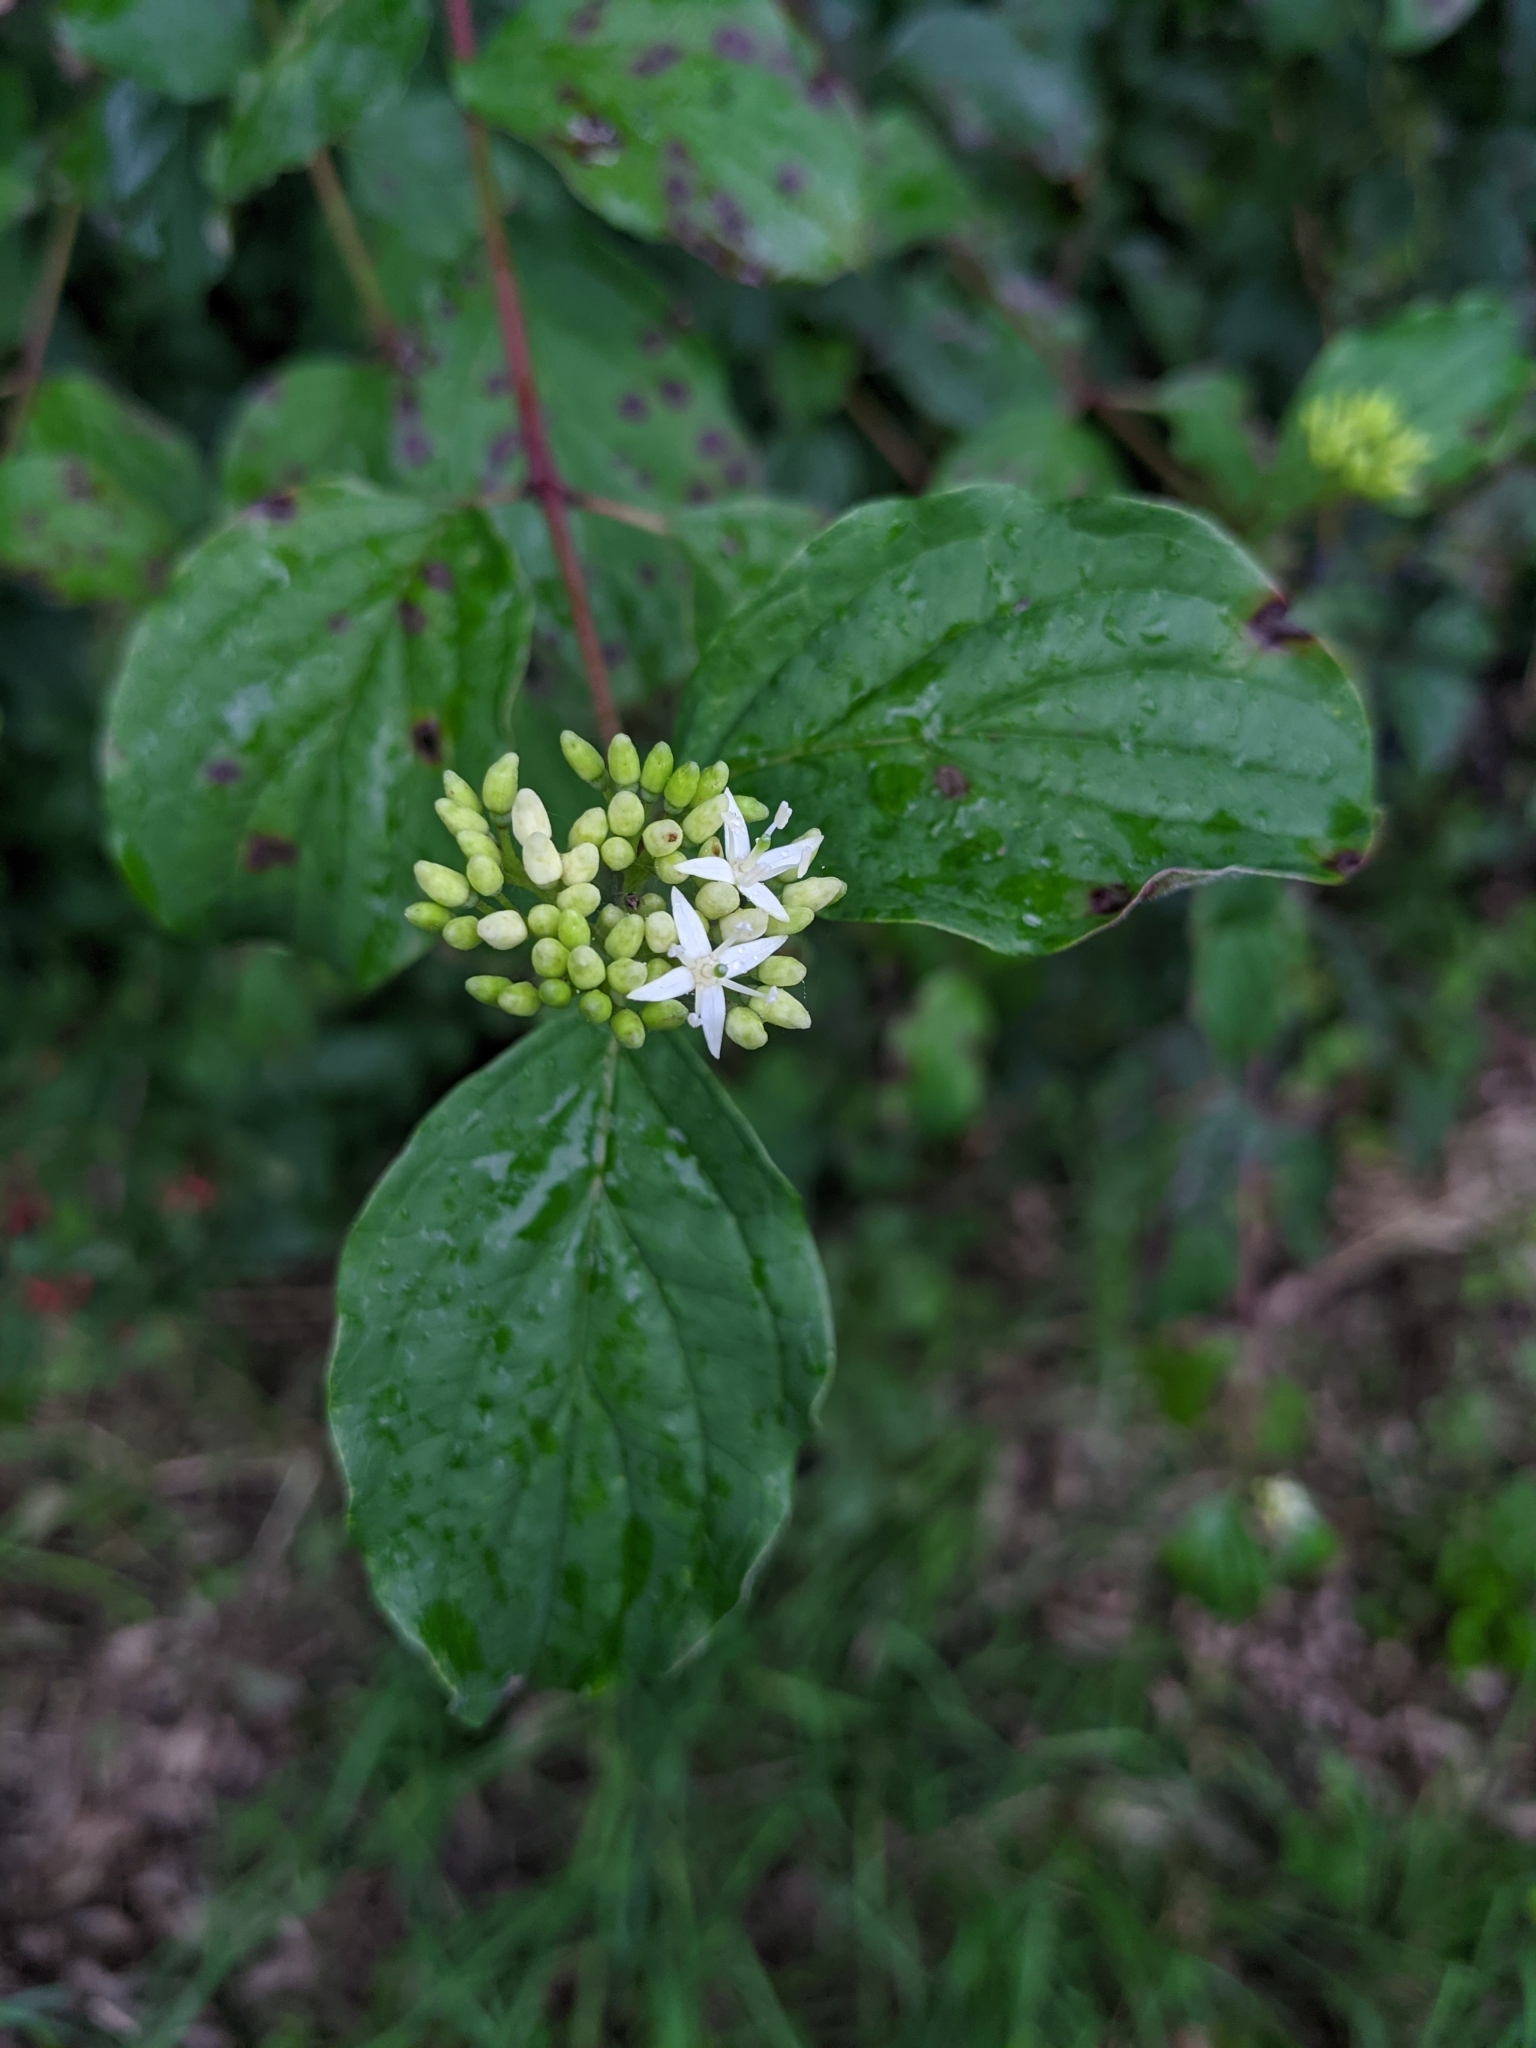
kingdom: Plantae
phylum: Tracheophyta
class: Magnoliopsida
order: Cornales
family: Cornaceae
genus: Cornus
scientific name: Cornus sanguinea
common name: Dogwood
